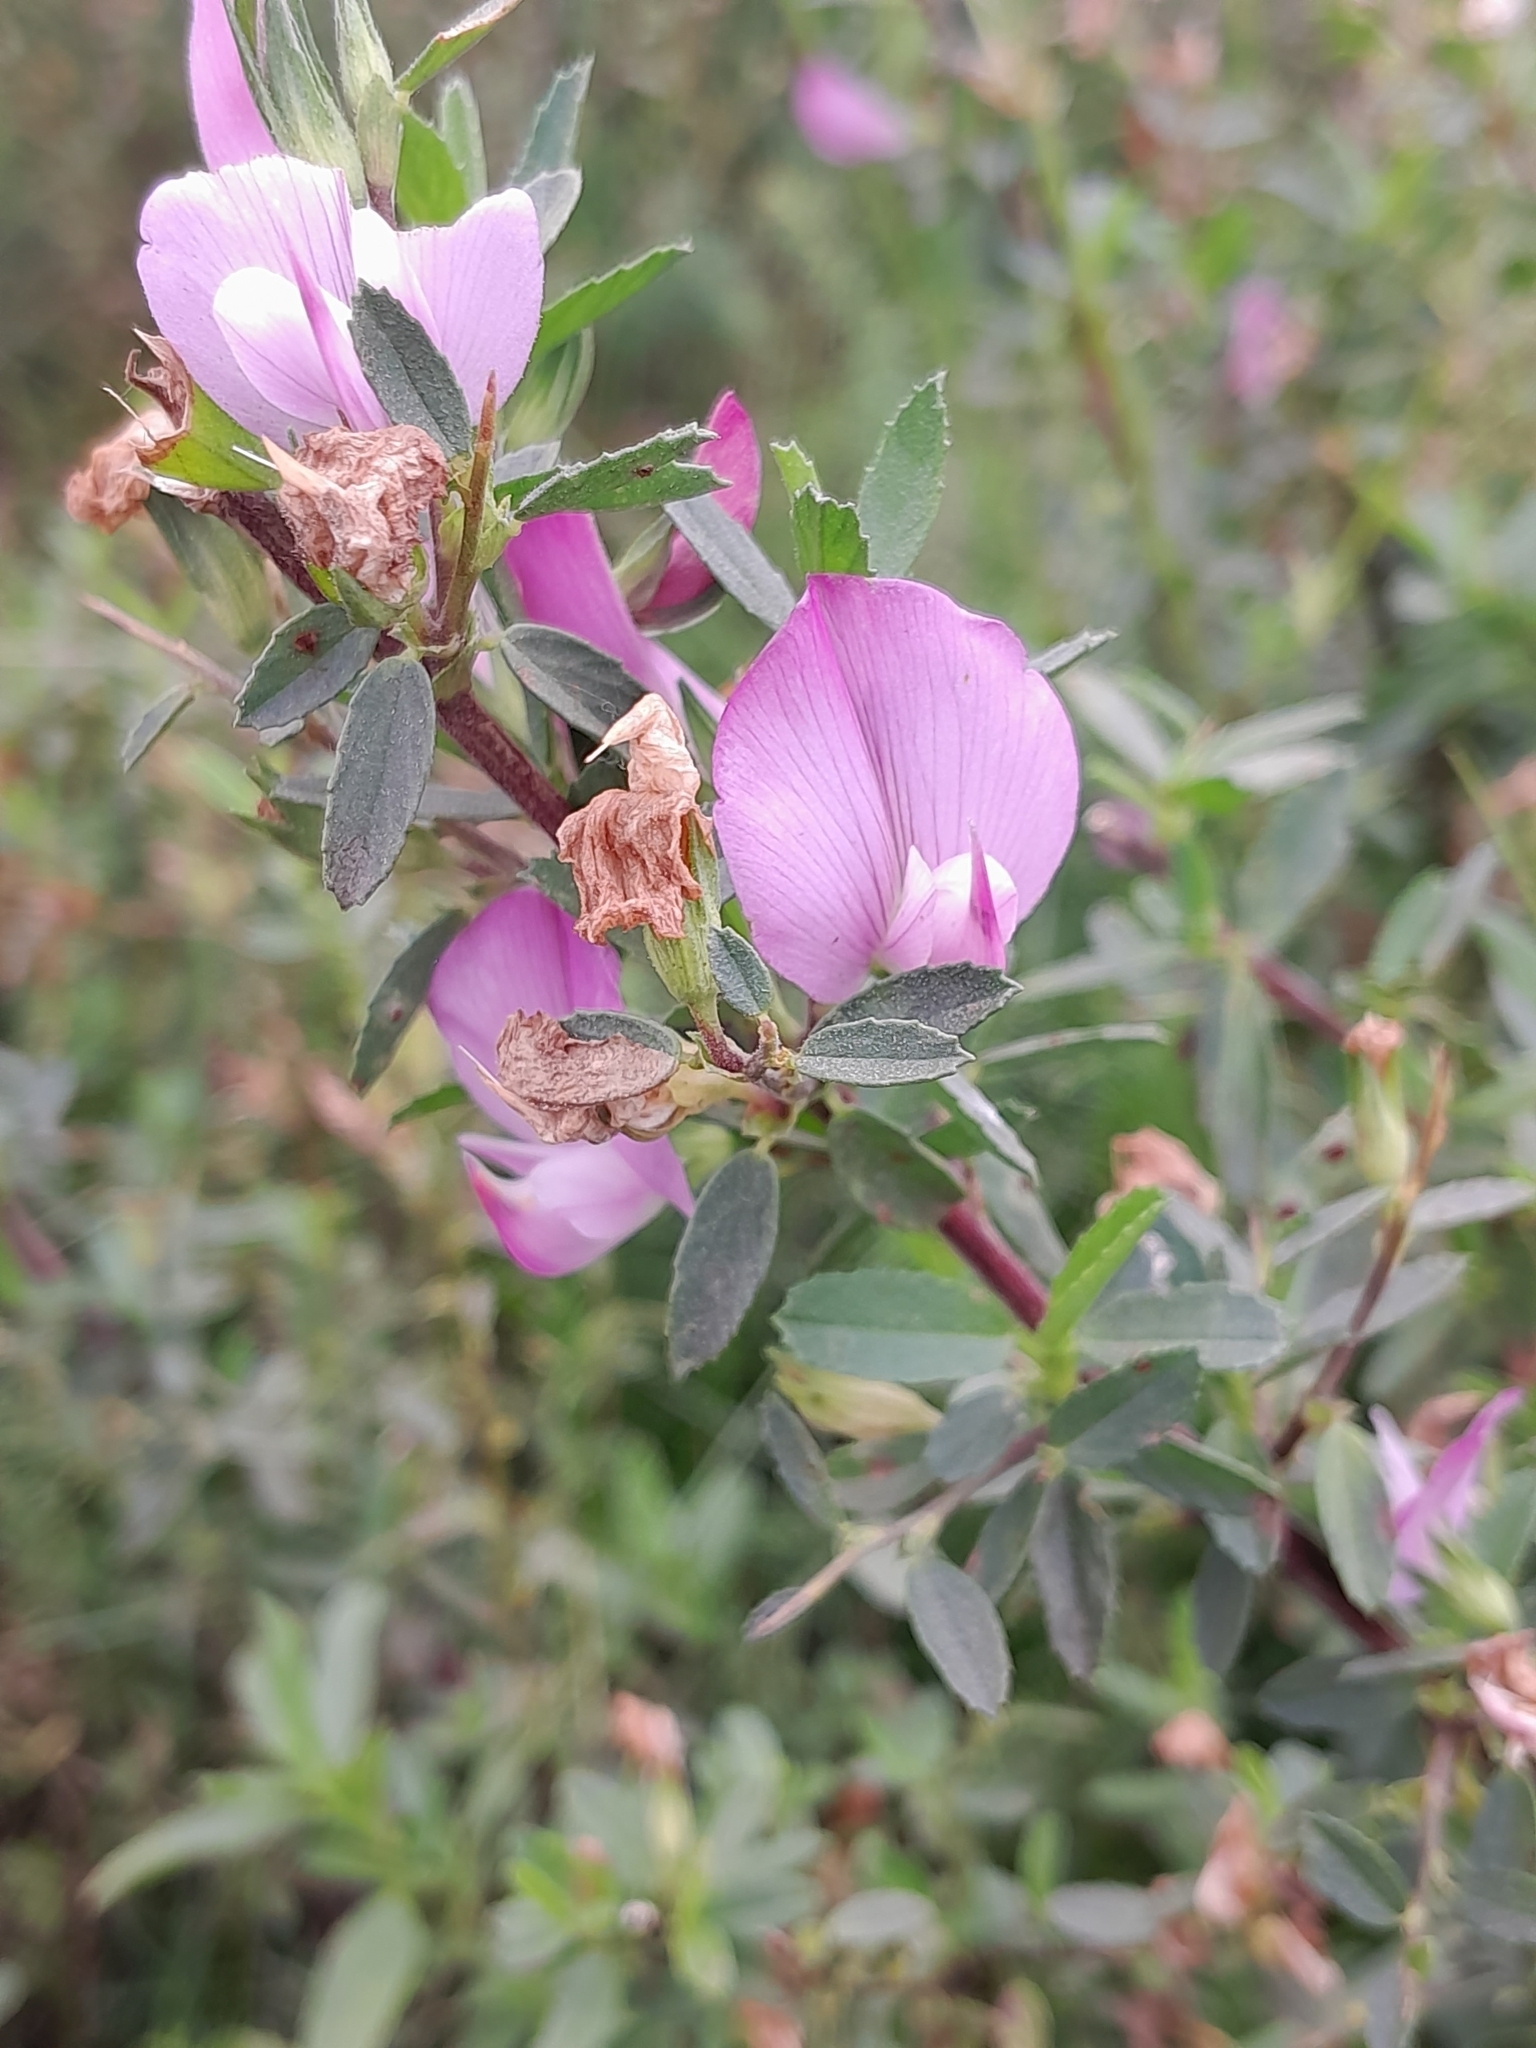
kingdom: Plantae
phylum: Tracheophyta
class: Magnoliopsida
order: Fabales
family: Fabaceae
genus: Ononis
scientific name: Ononis spinosa
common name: Spiny restharrow
